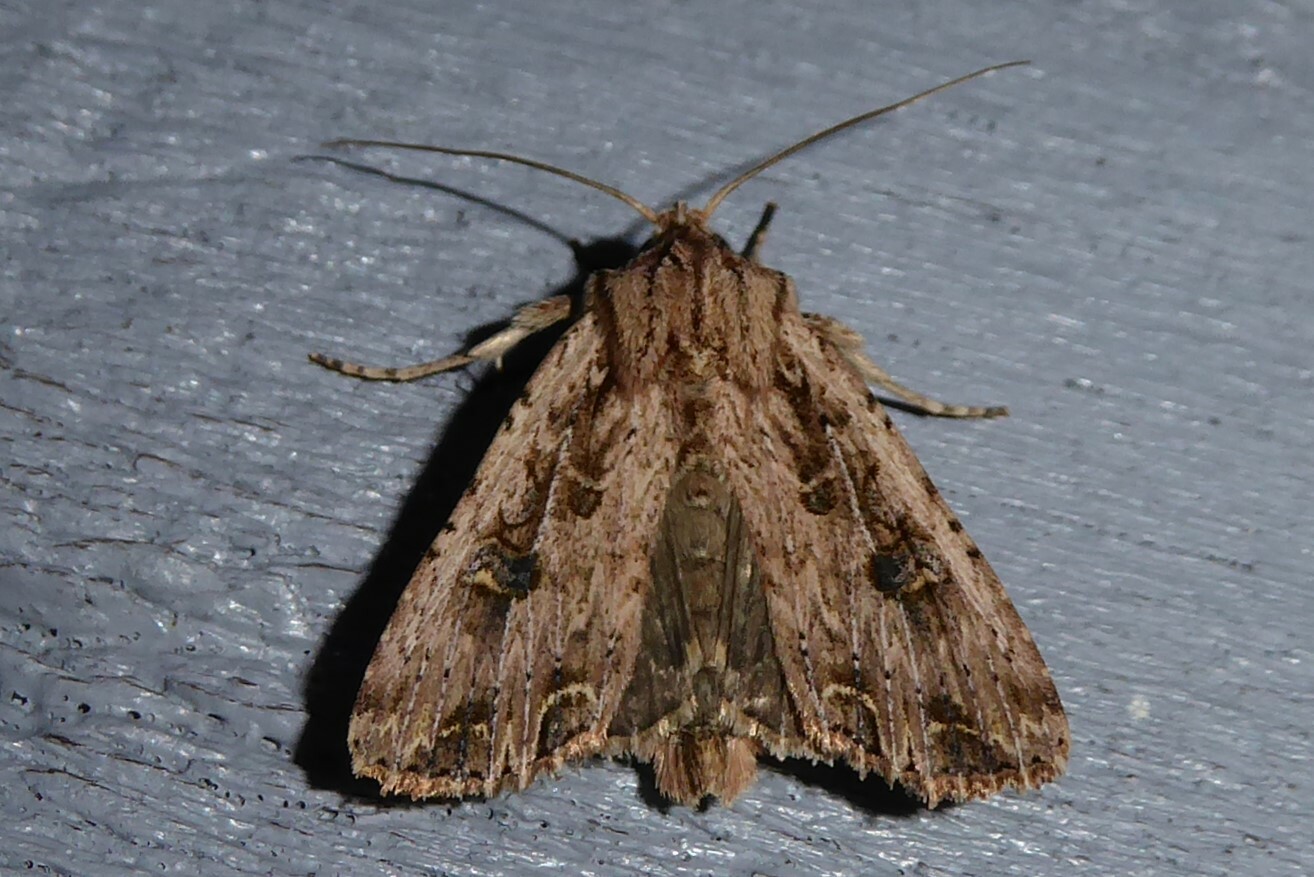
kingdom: Animalia
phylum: Arthropoda
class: Insecta
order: Lepidoptera
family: Noctuidae
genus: Ichneutica
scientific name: Ichneutica lignana
